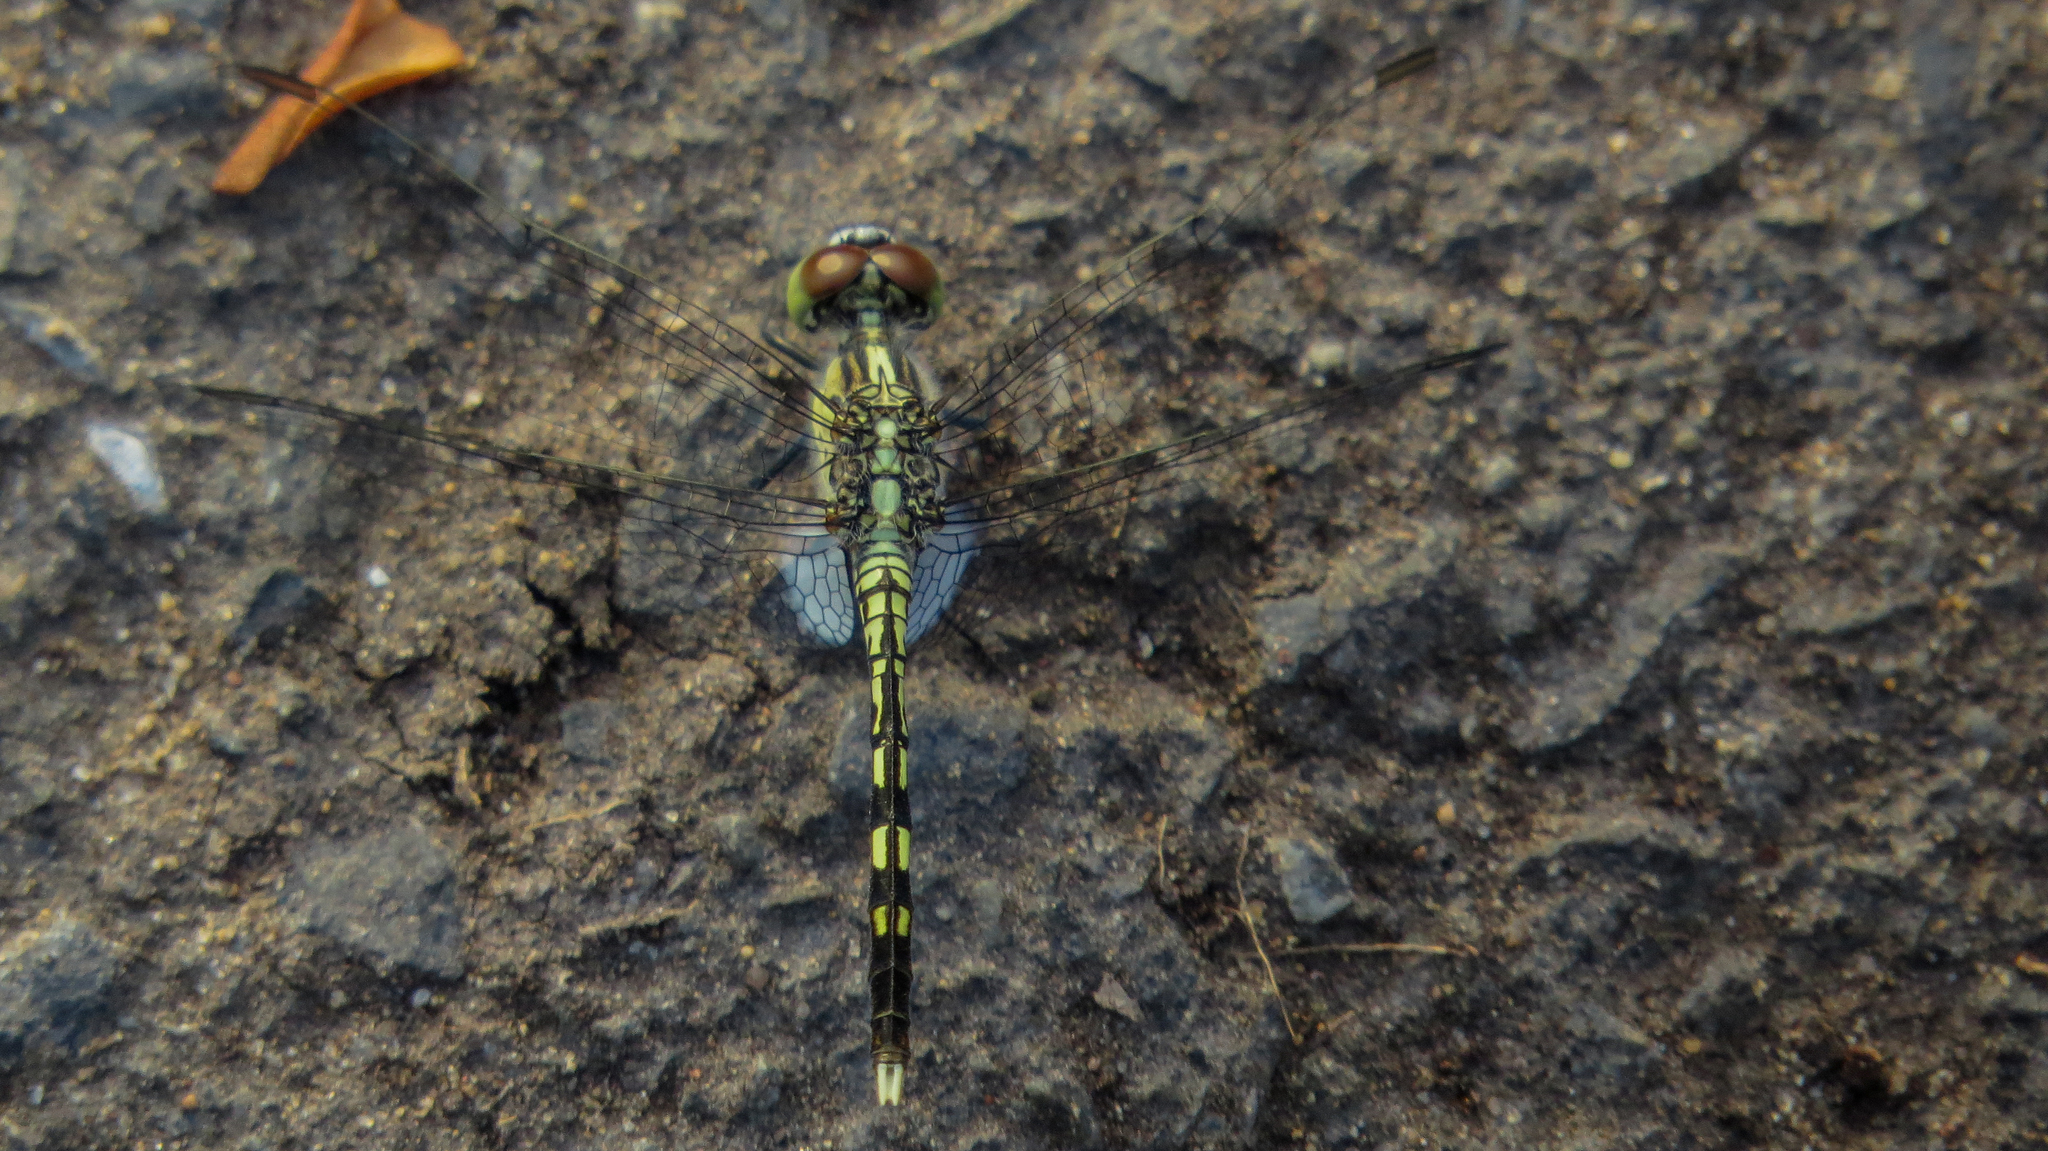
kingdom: Animalia
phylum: Arthropoda
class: Insecta
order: Odonata
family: Libellulidae
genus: Diplacodes
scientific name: Diplacodes trivialis
